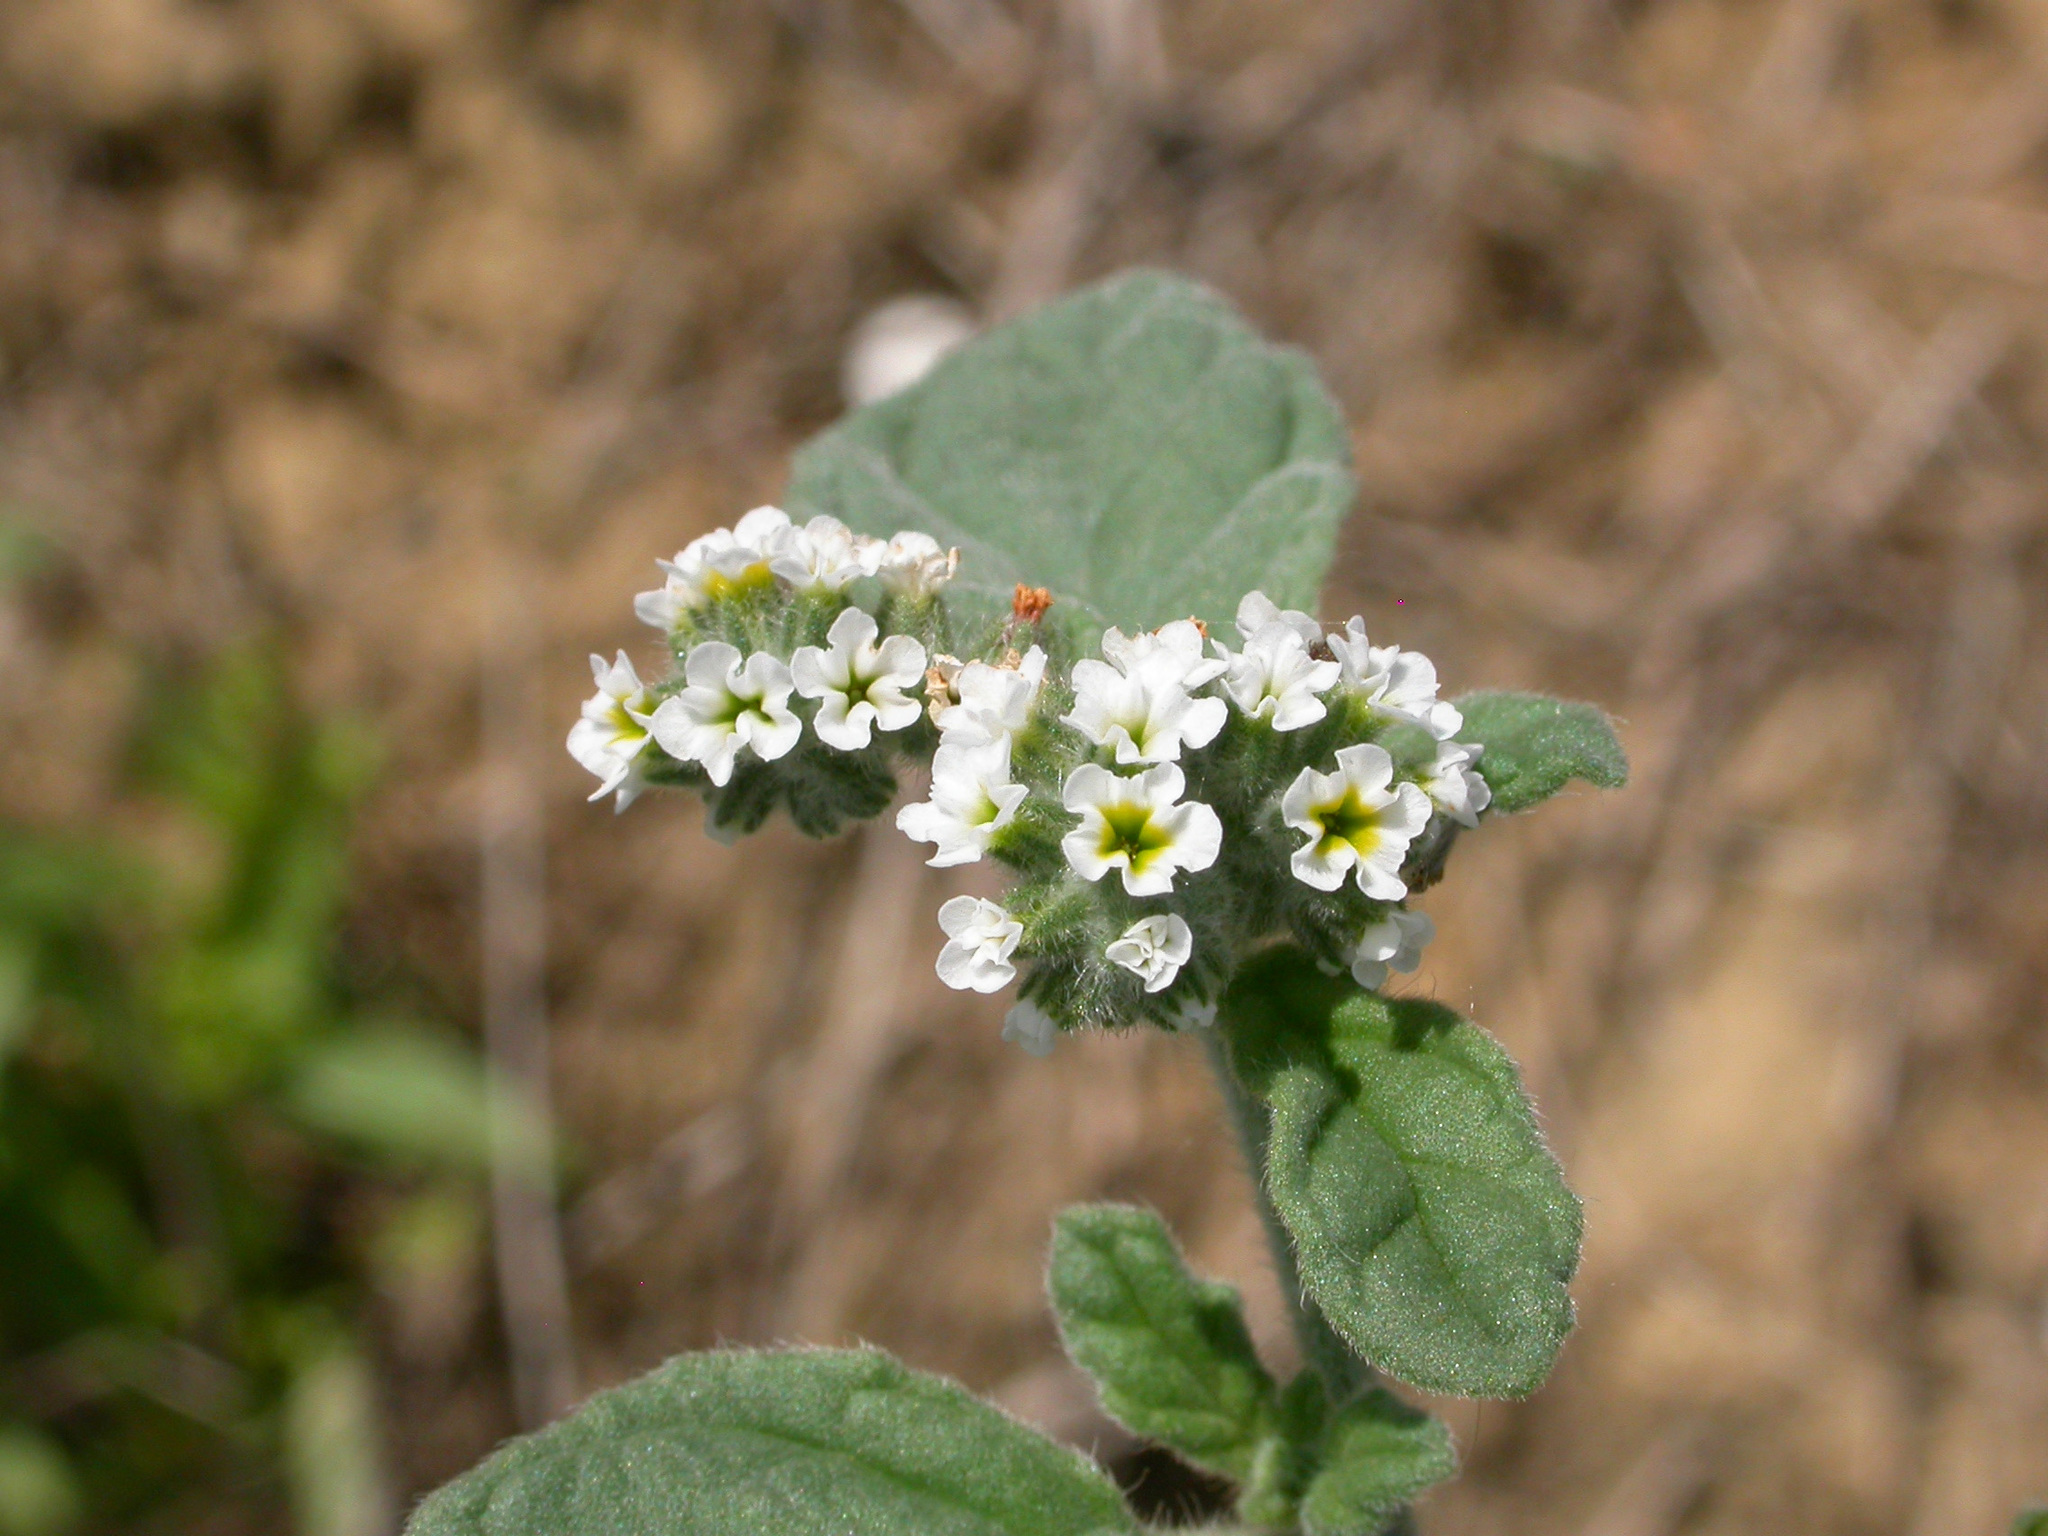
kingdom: Plantae
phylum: Tracheophyta
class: Magnoliopsida
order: Boraginales
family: Heliotropiaceae
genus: Heliotropium
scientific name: Heliotropium europaeum
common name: European heliotrope
